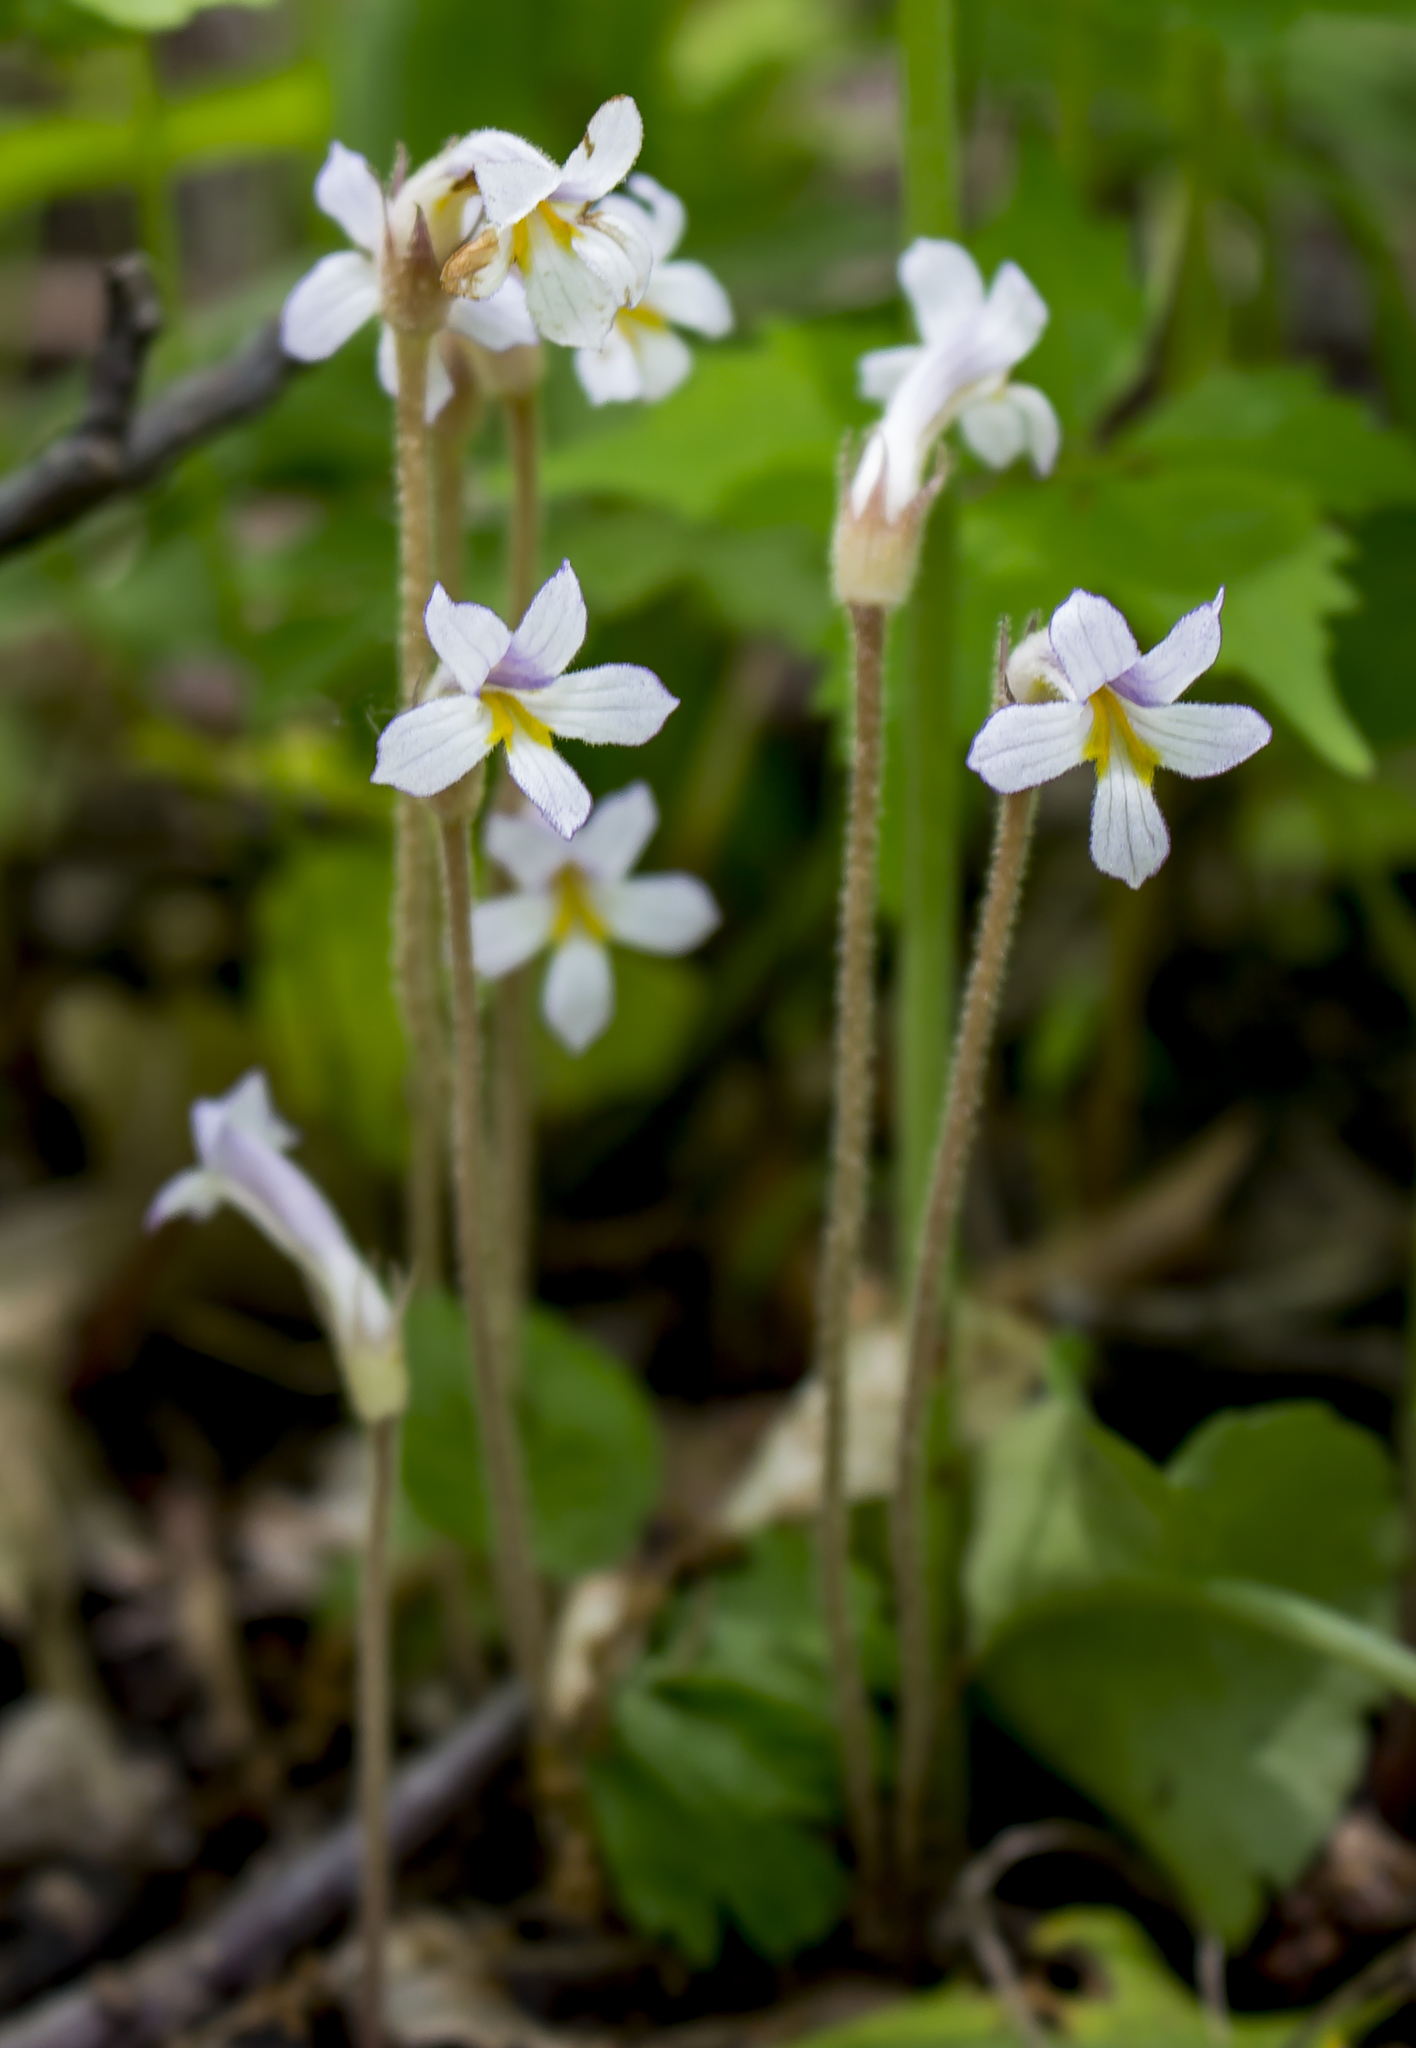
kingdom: Plantae
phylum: Tracheophyta
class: Magnoliopsida
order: Lamiales
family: Orobanchaceae
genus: Aphyllon
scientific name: Aphyllon uniflorum
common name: One-flowered broomrape
